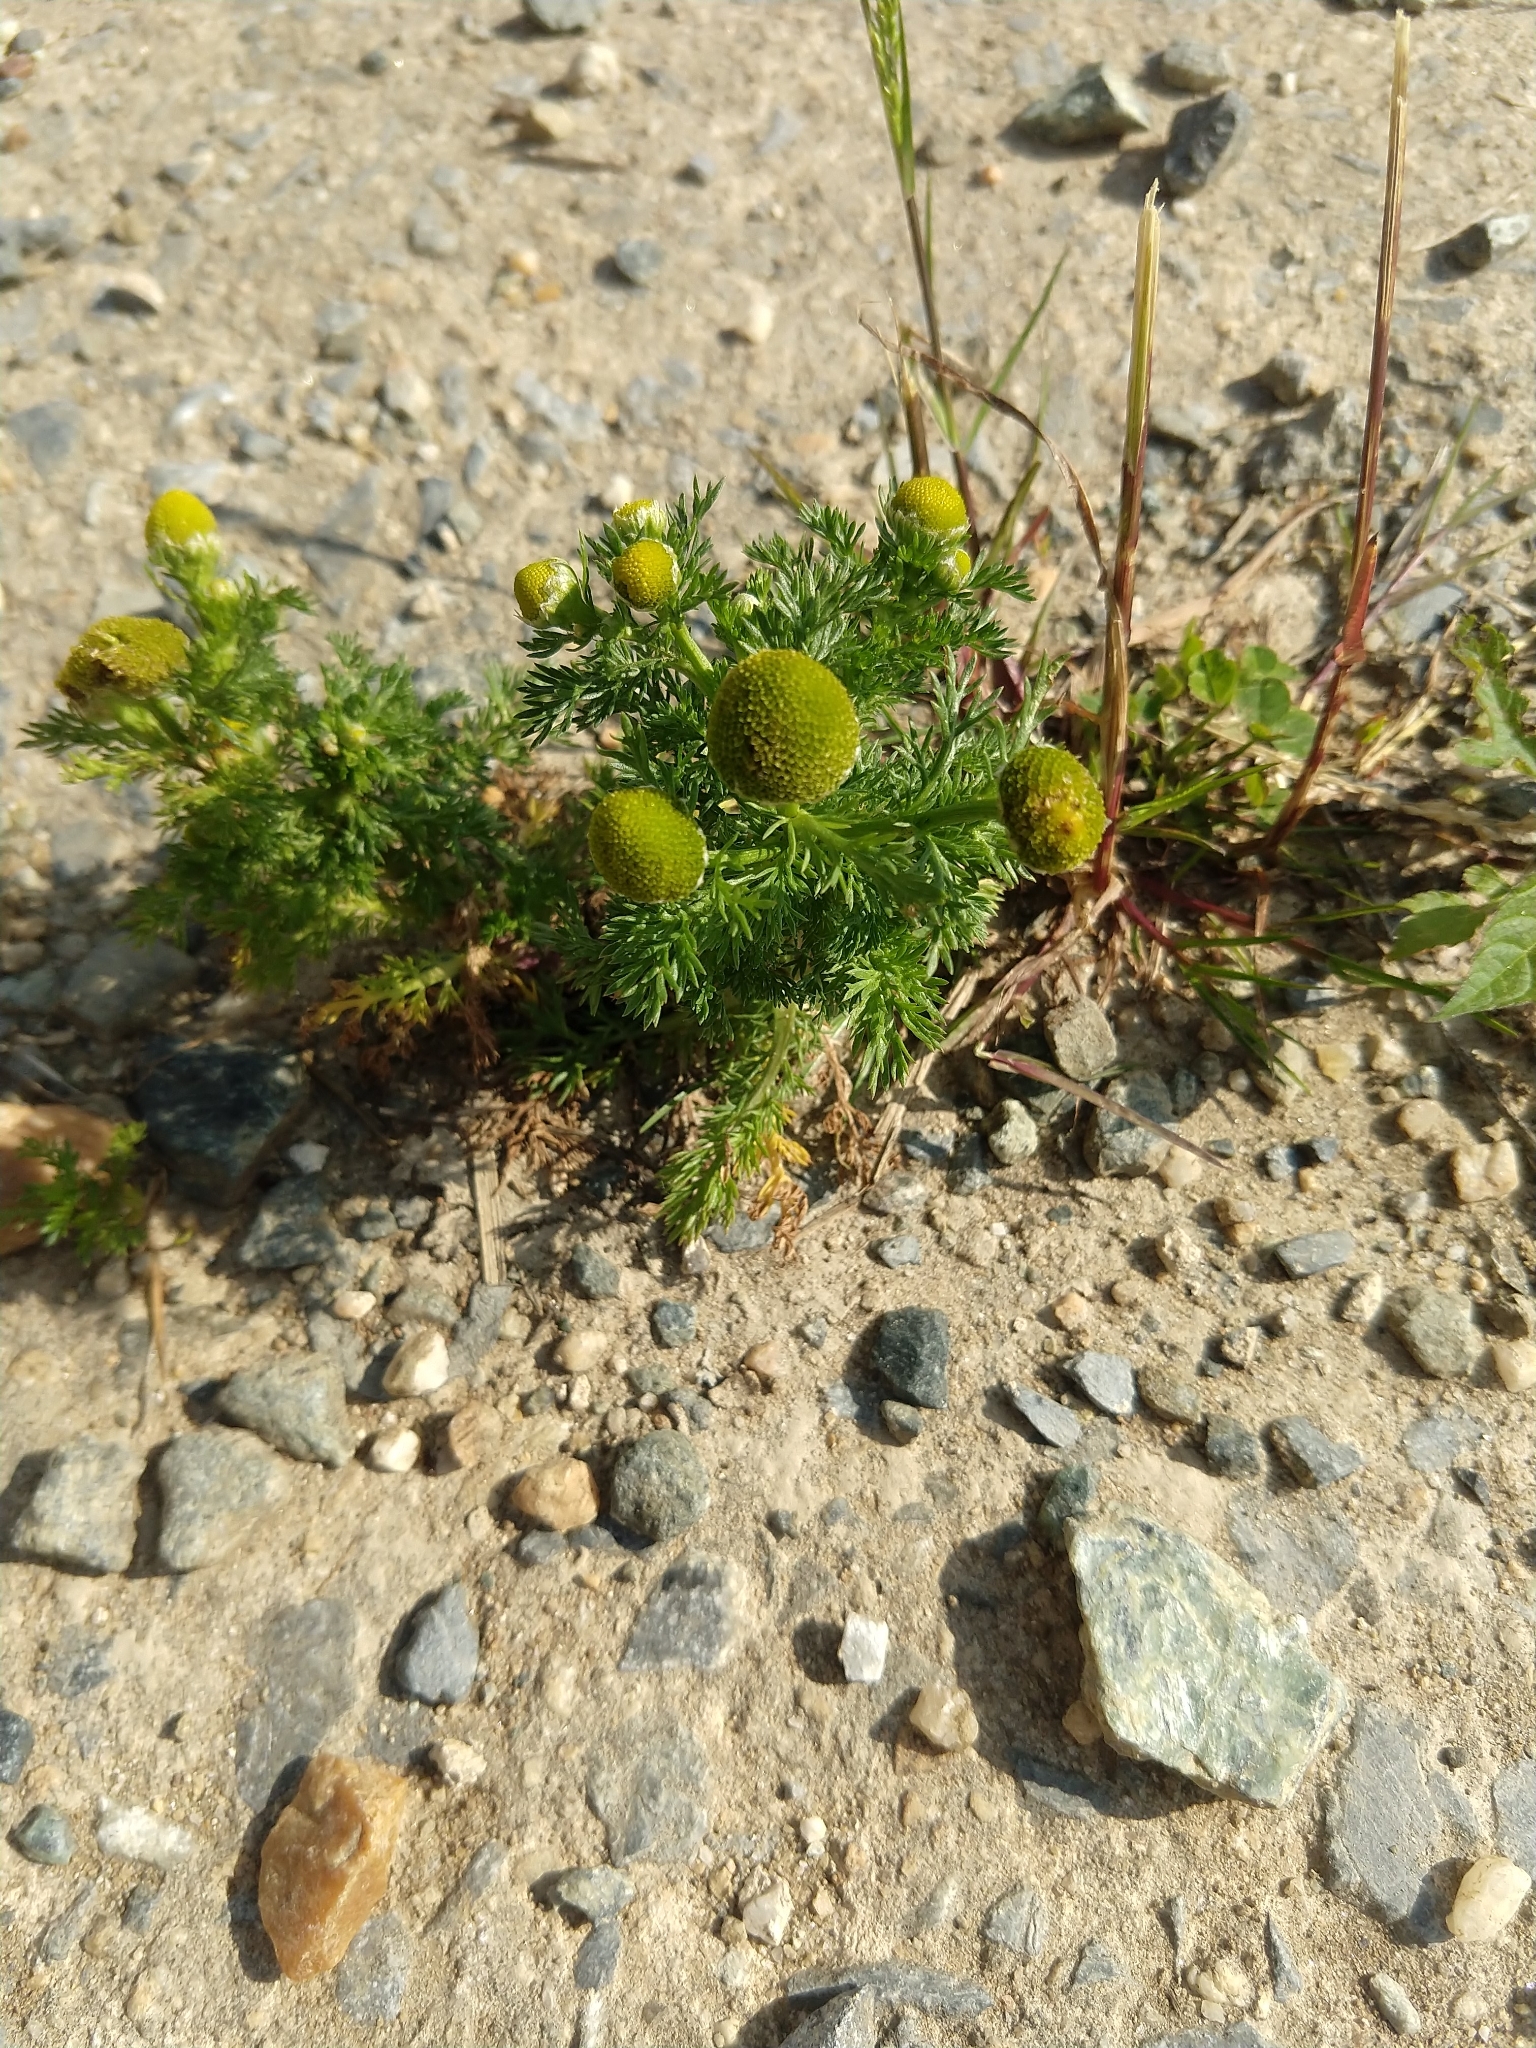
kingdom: Plantae
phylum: Tracheophyta
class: Magnoliopsida
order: Asterales
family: Asteraceae
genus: Matricaria
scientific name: Matricaria discoidea
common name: Disc mayweed
